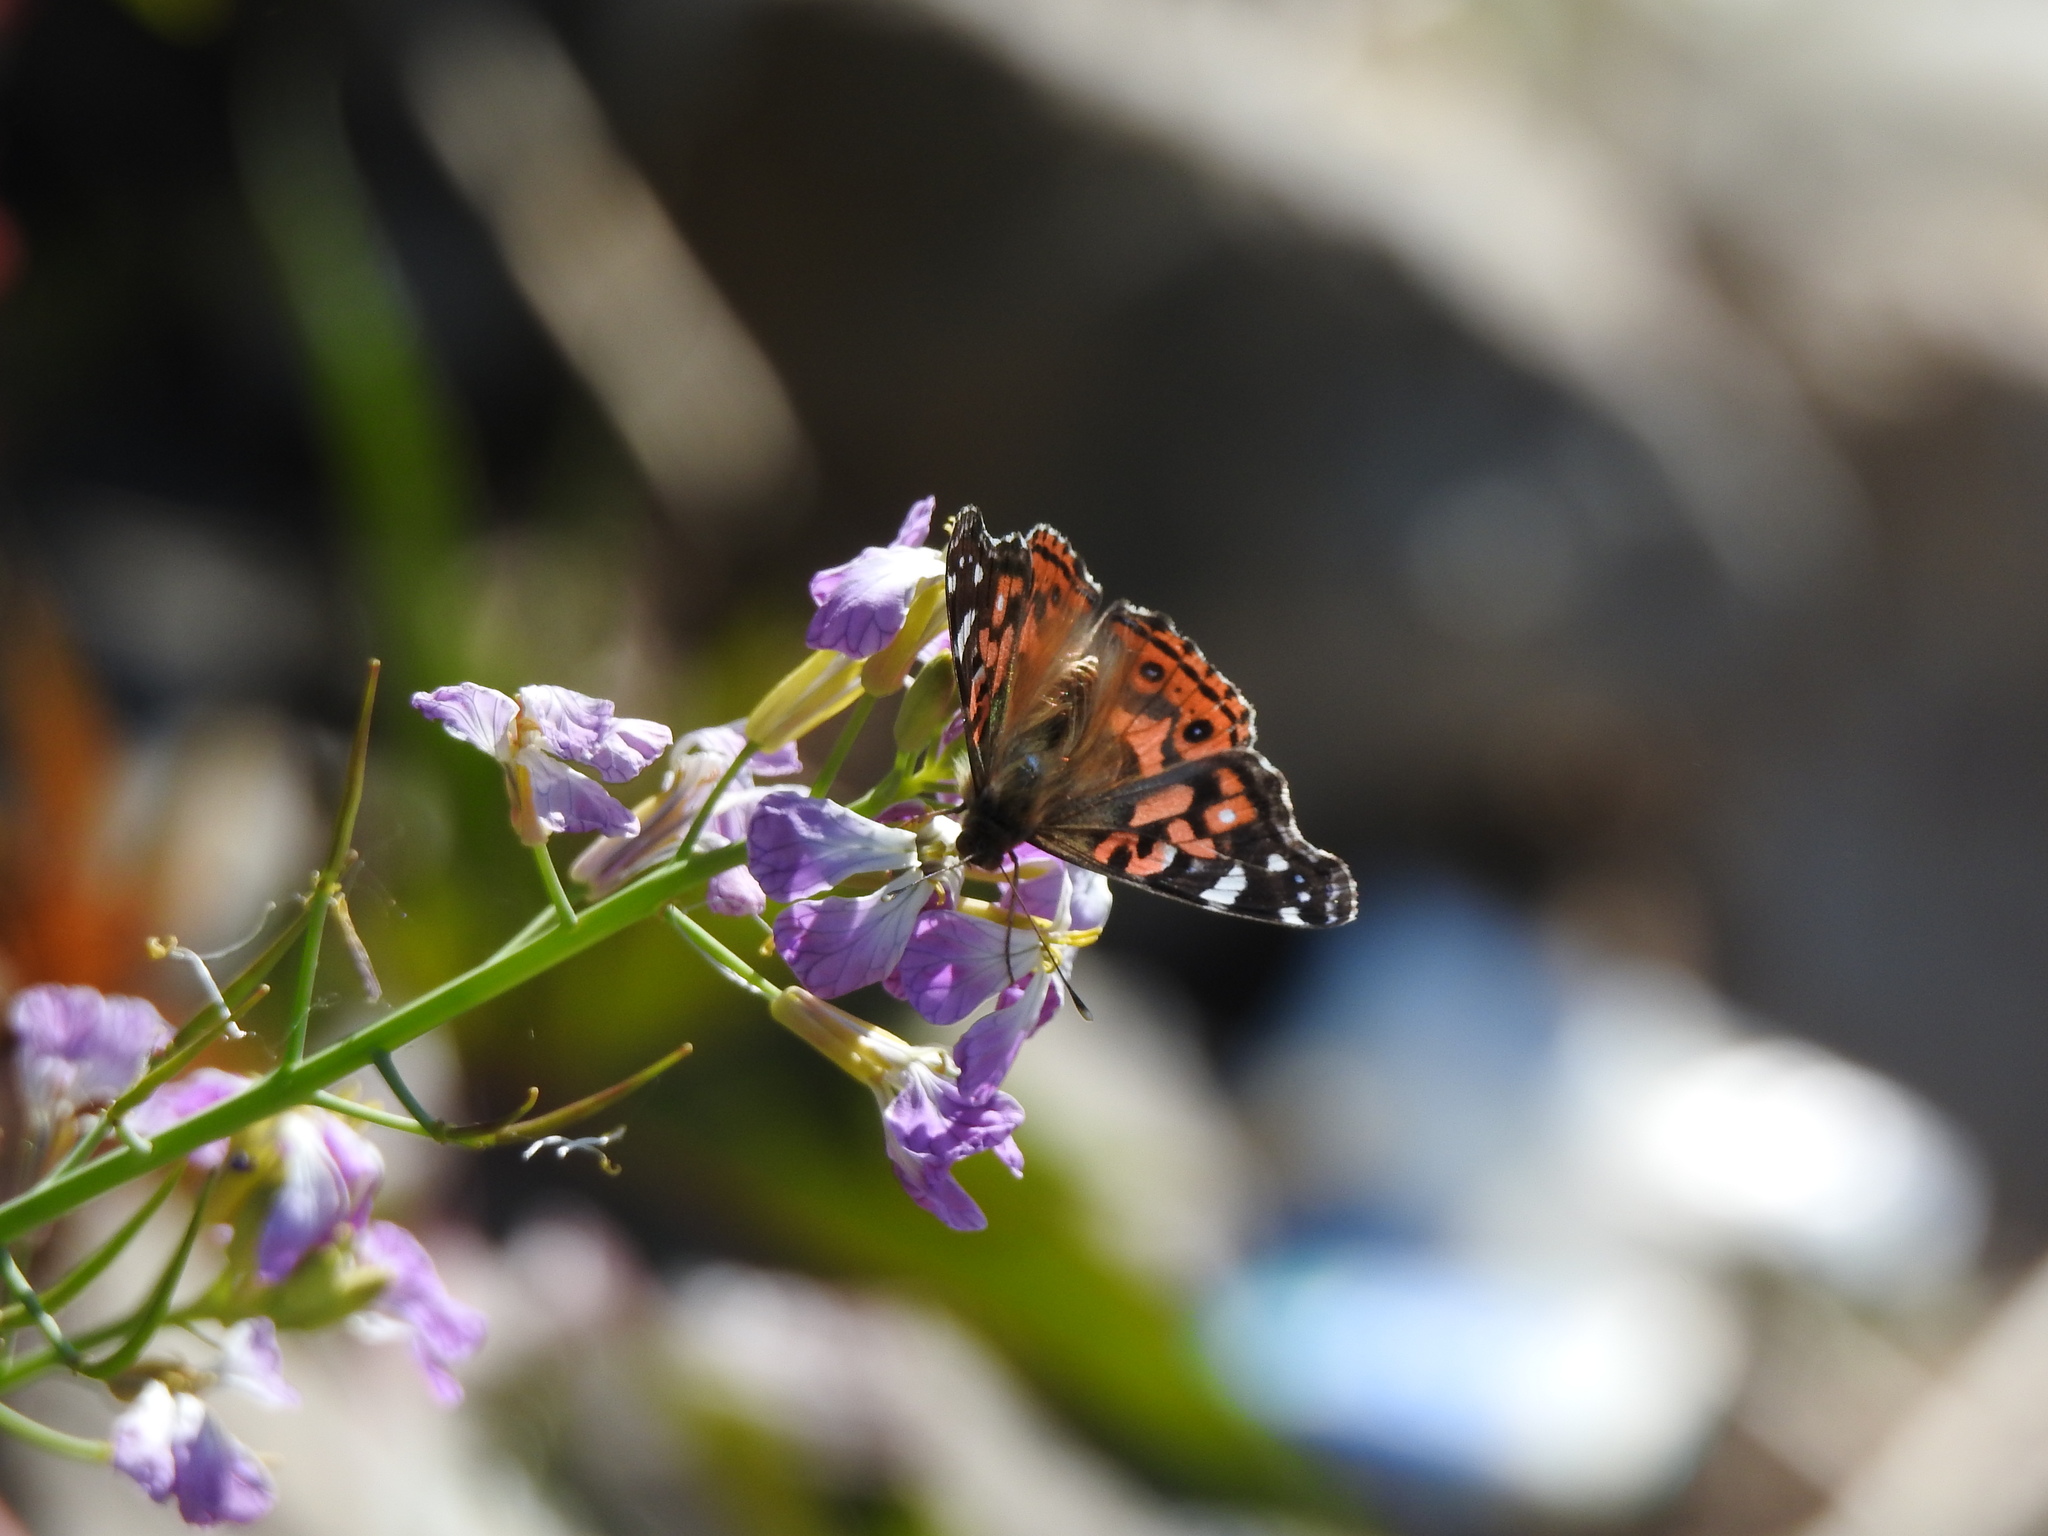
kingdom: Plantae
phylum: Tracheophyta
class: Magnoliopsida
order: Brassicales
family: Brassicaceae
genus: Raphanus
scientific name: Raphanus sativus
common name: Cultivated radish
